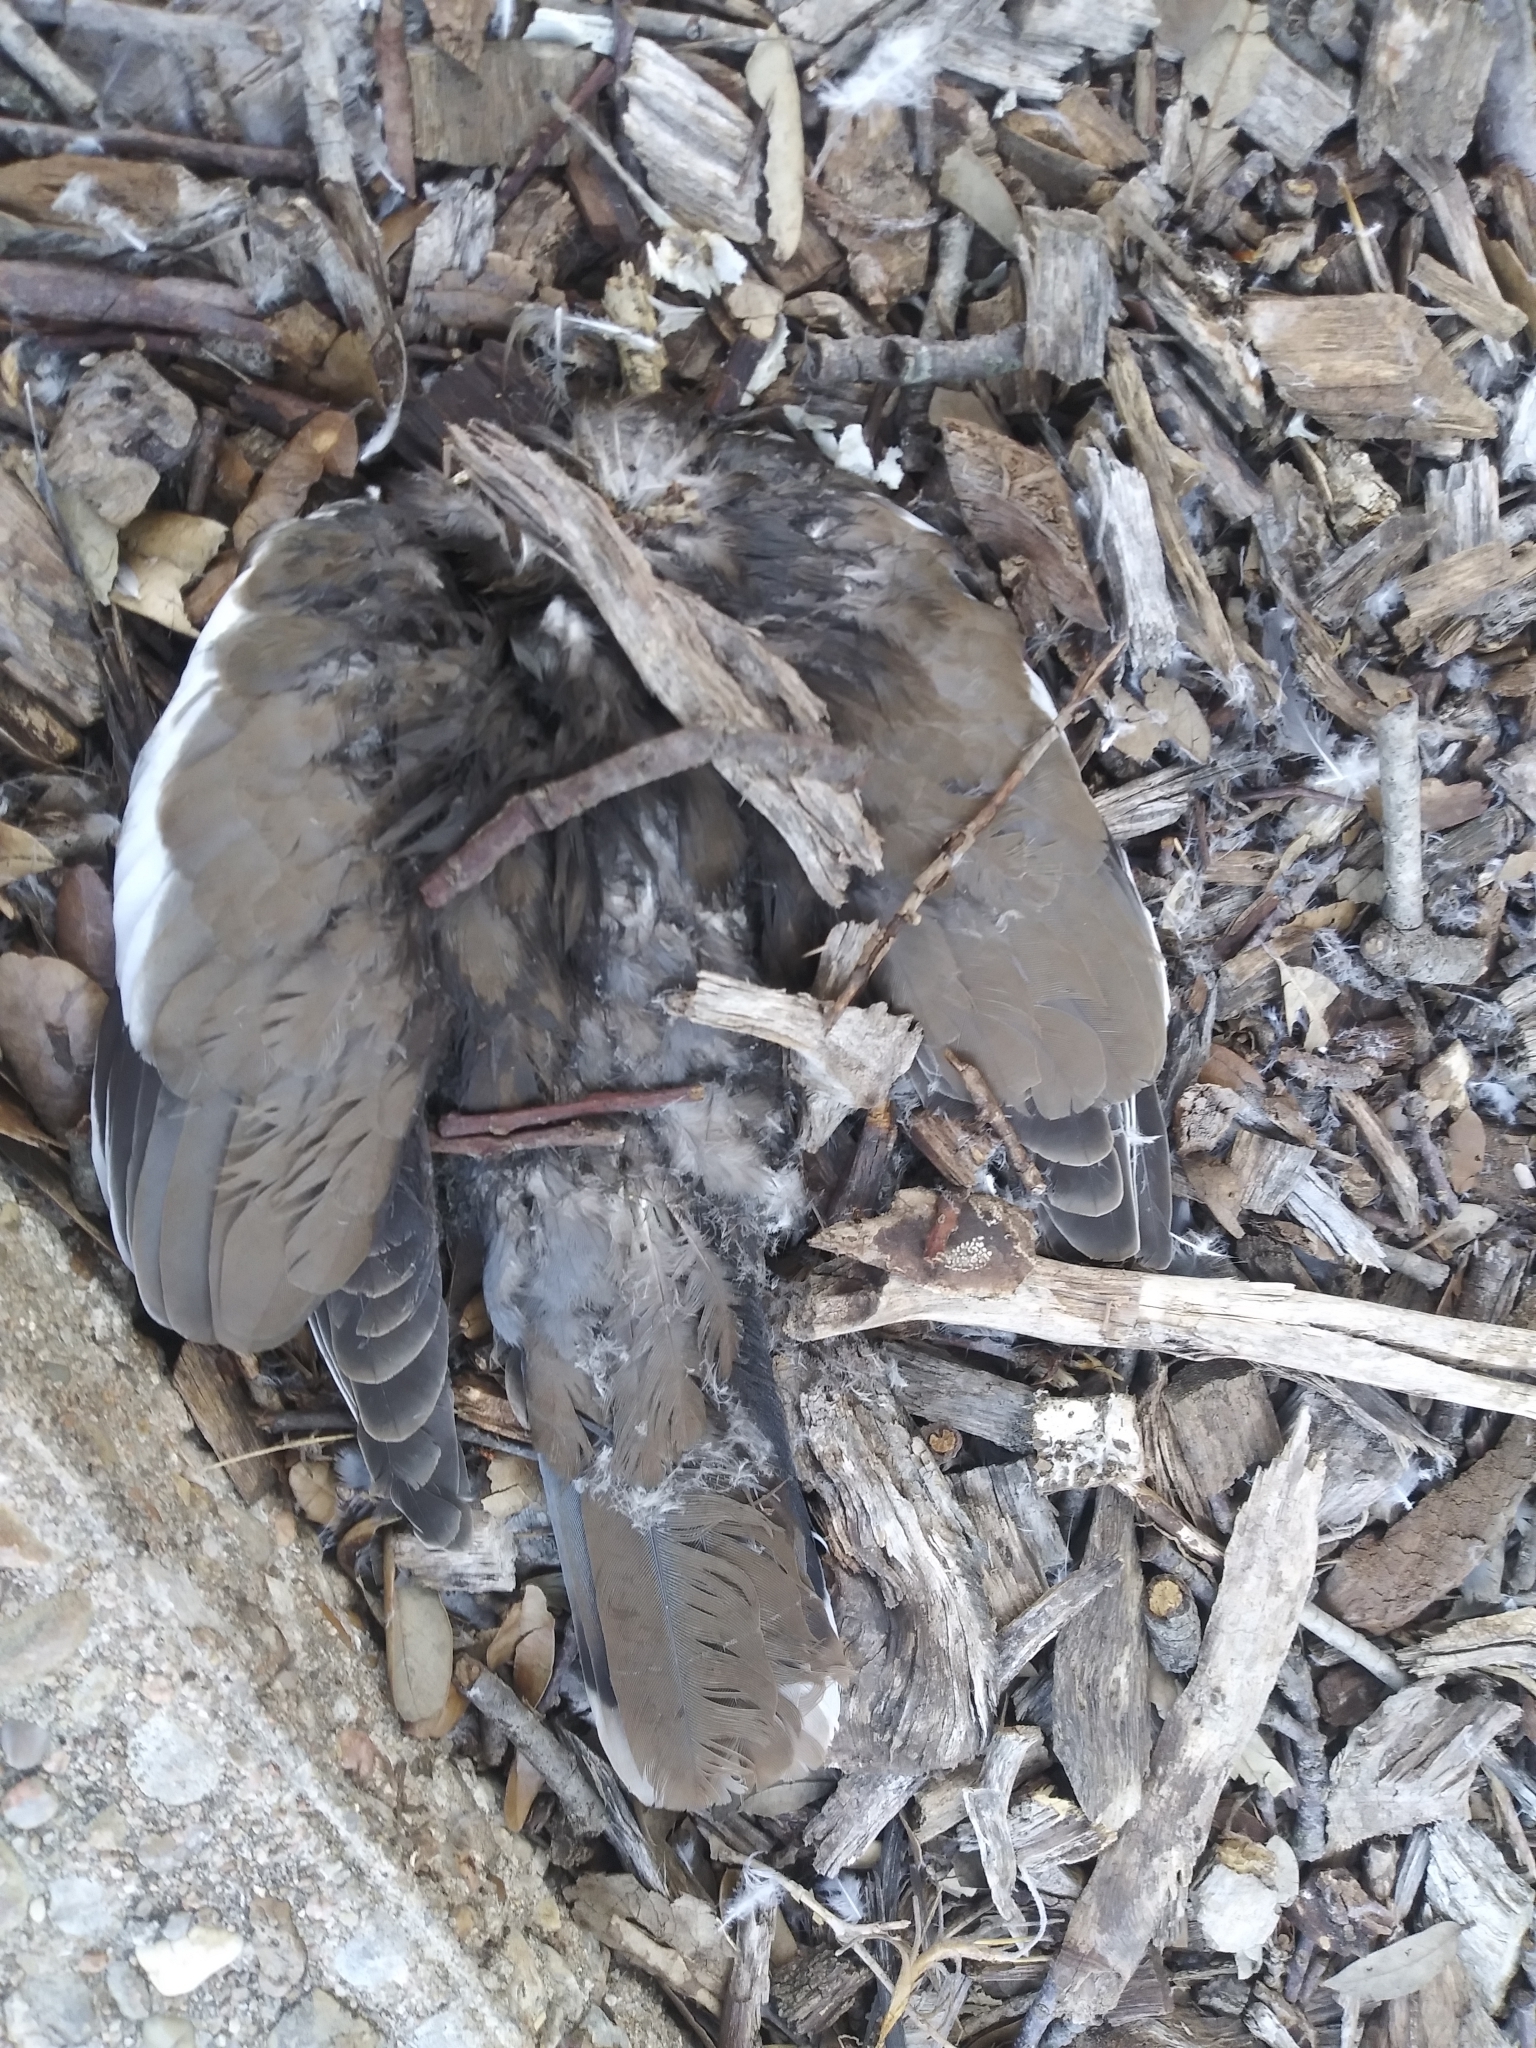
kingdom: Animalia
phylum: Chordata
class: Aves
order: Columbiformes
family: Columbidae
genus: Zenaida
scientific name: Zenaida asiatica
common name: White-winged dove
